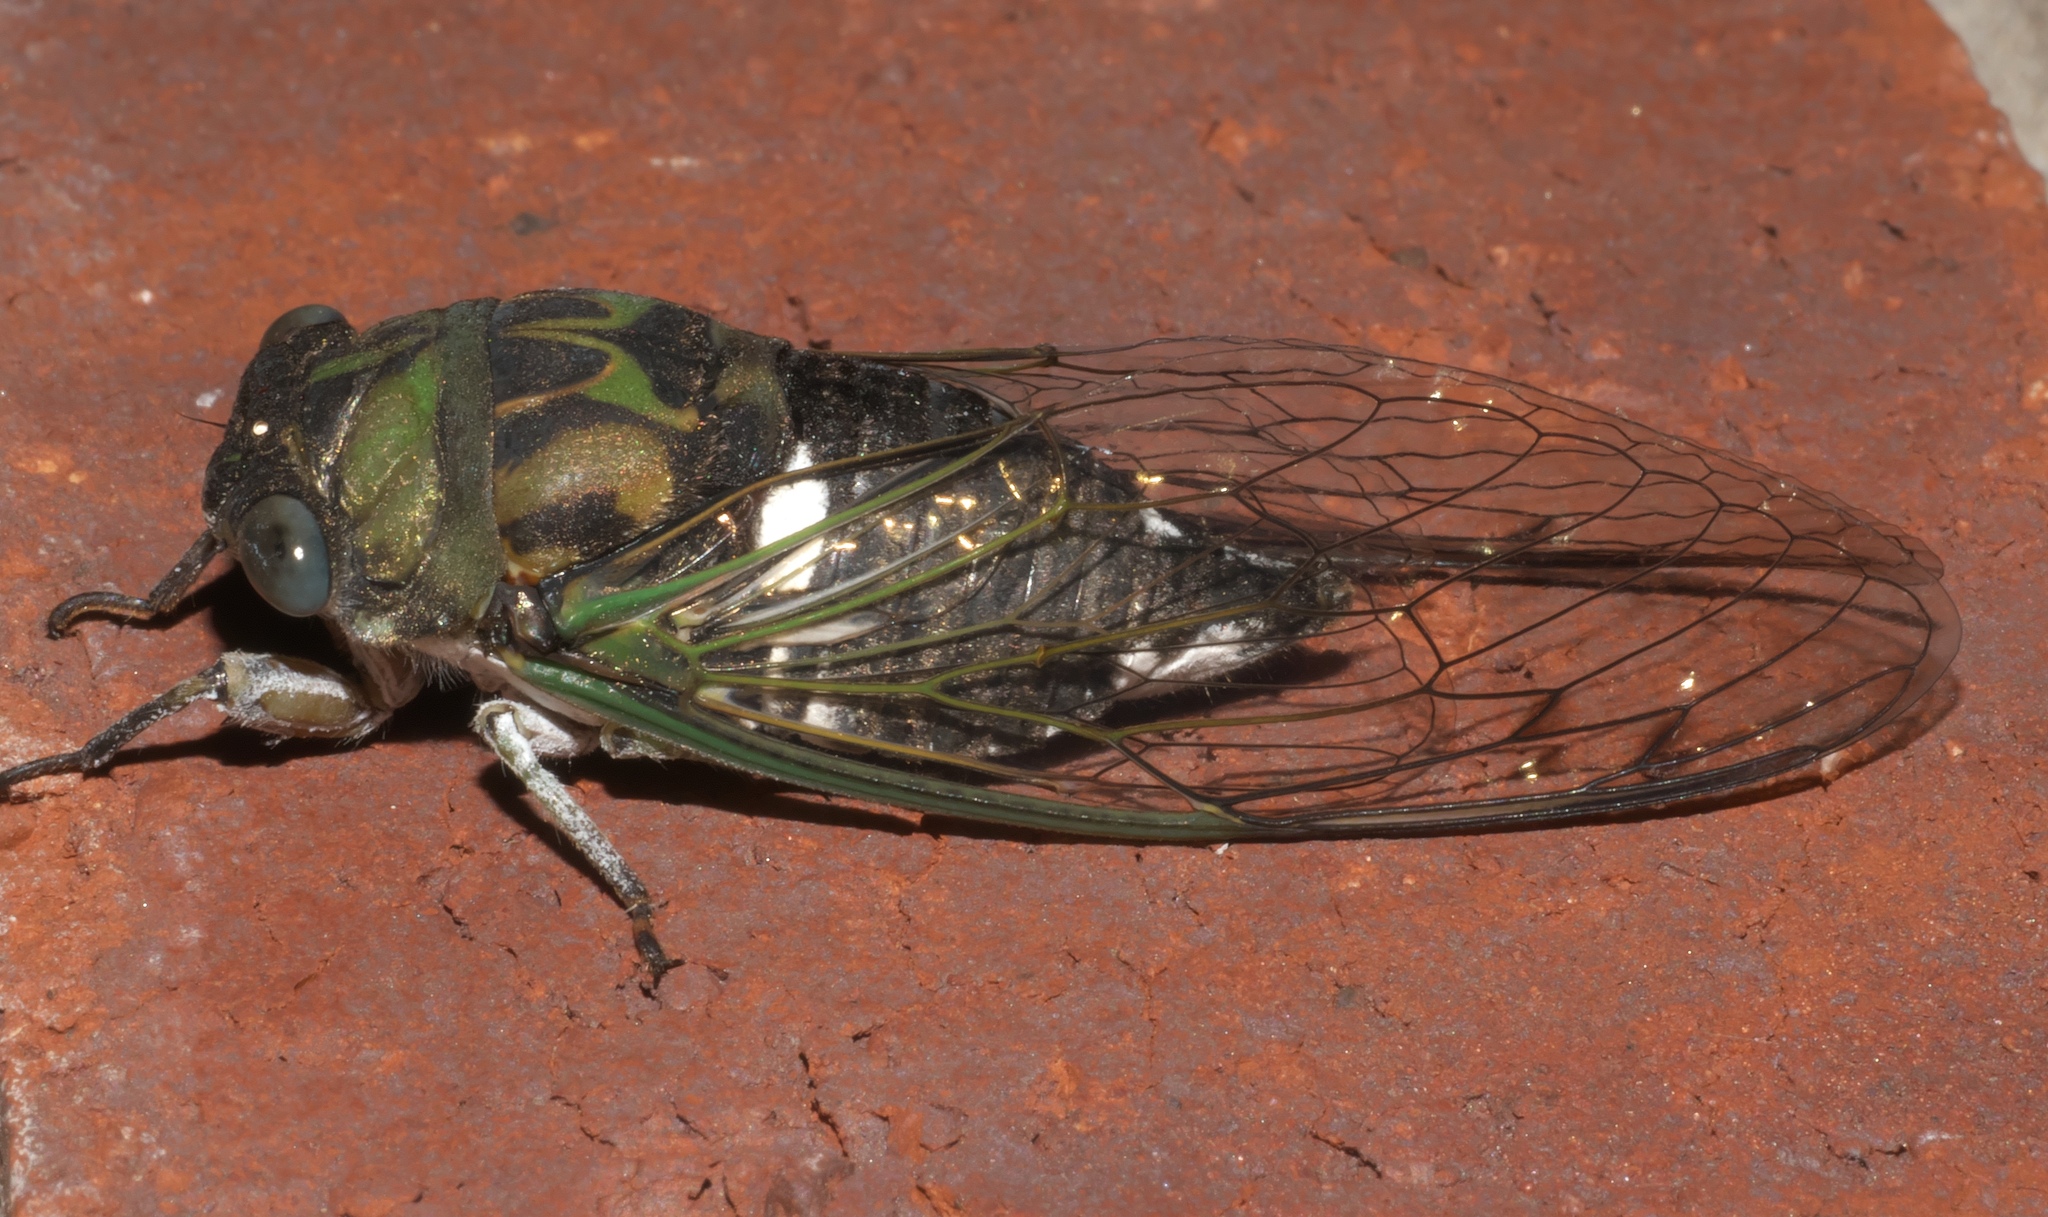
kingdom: Animalia
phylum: Arthropoda
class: Insecta
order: Hemiptera
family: Cicadidae
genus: Neotibicen
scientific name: Neotibicen pruinosus
